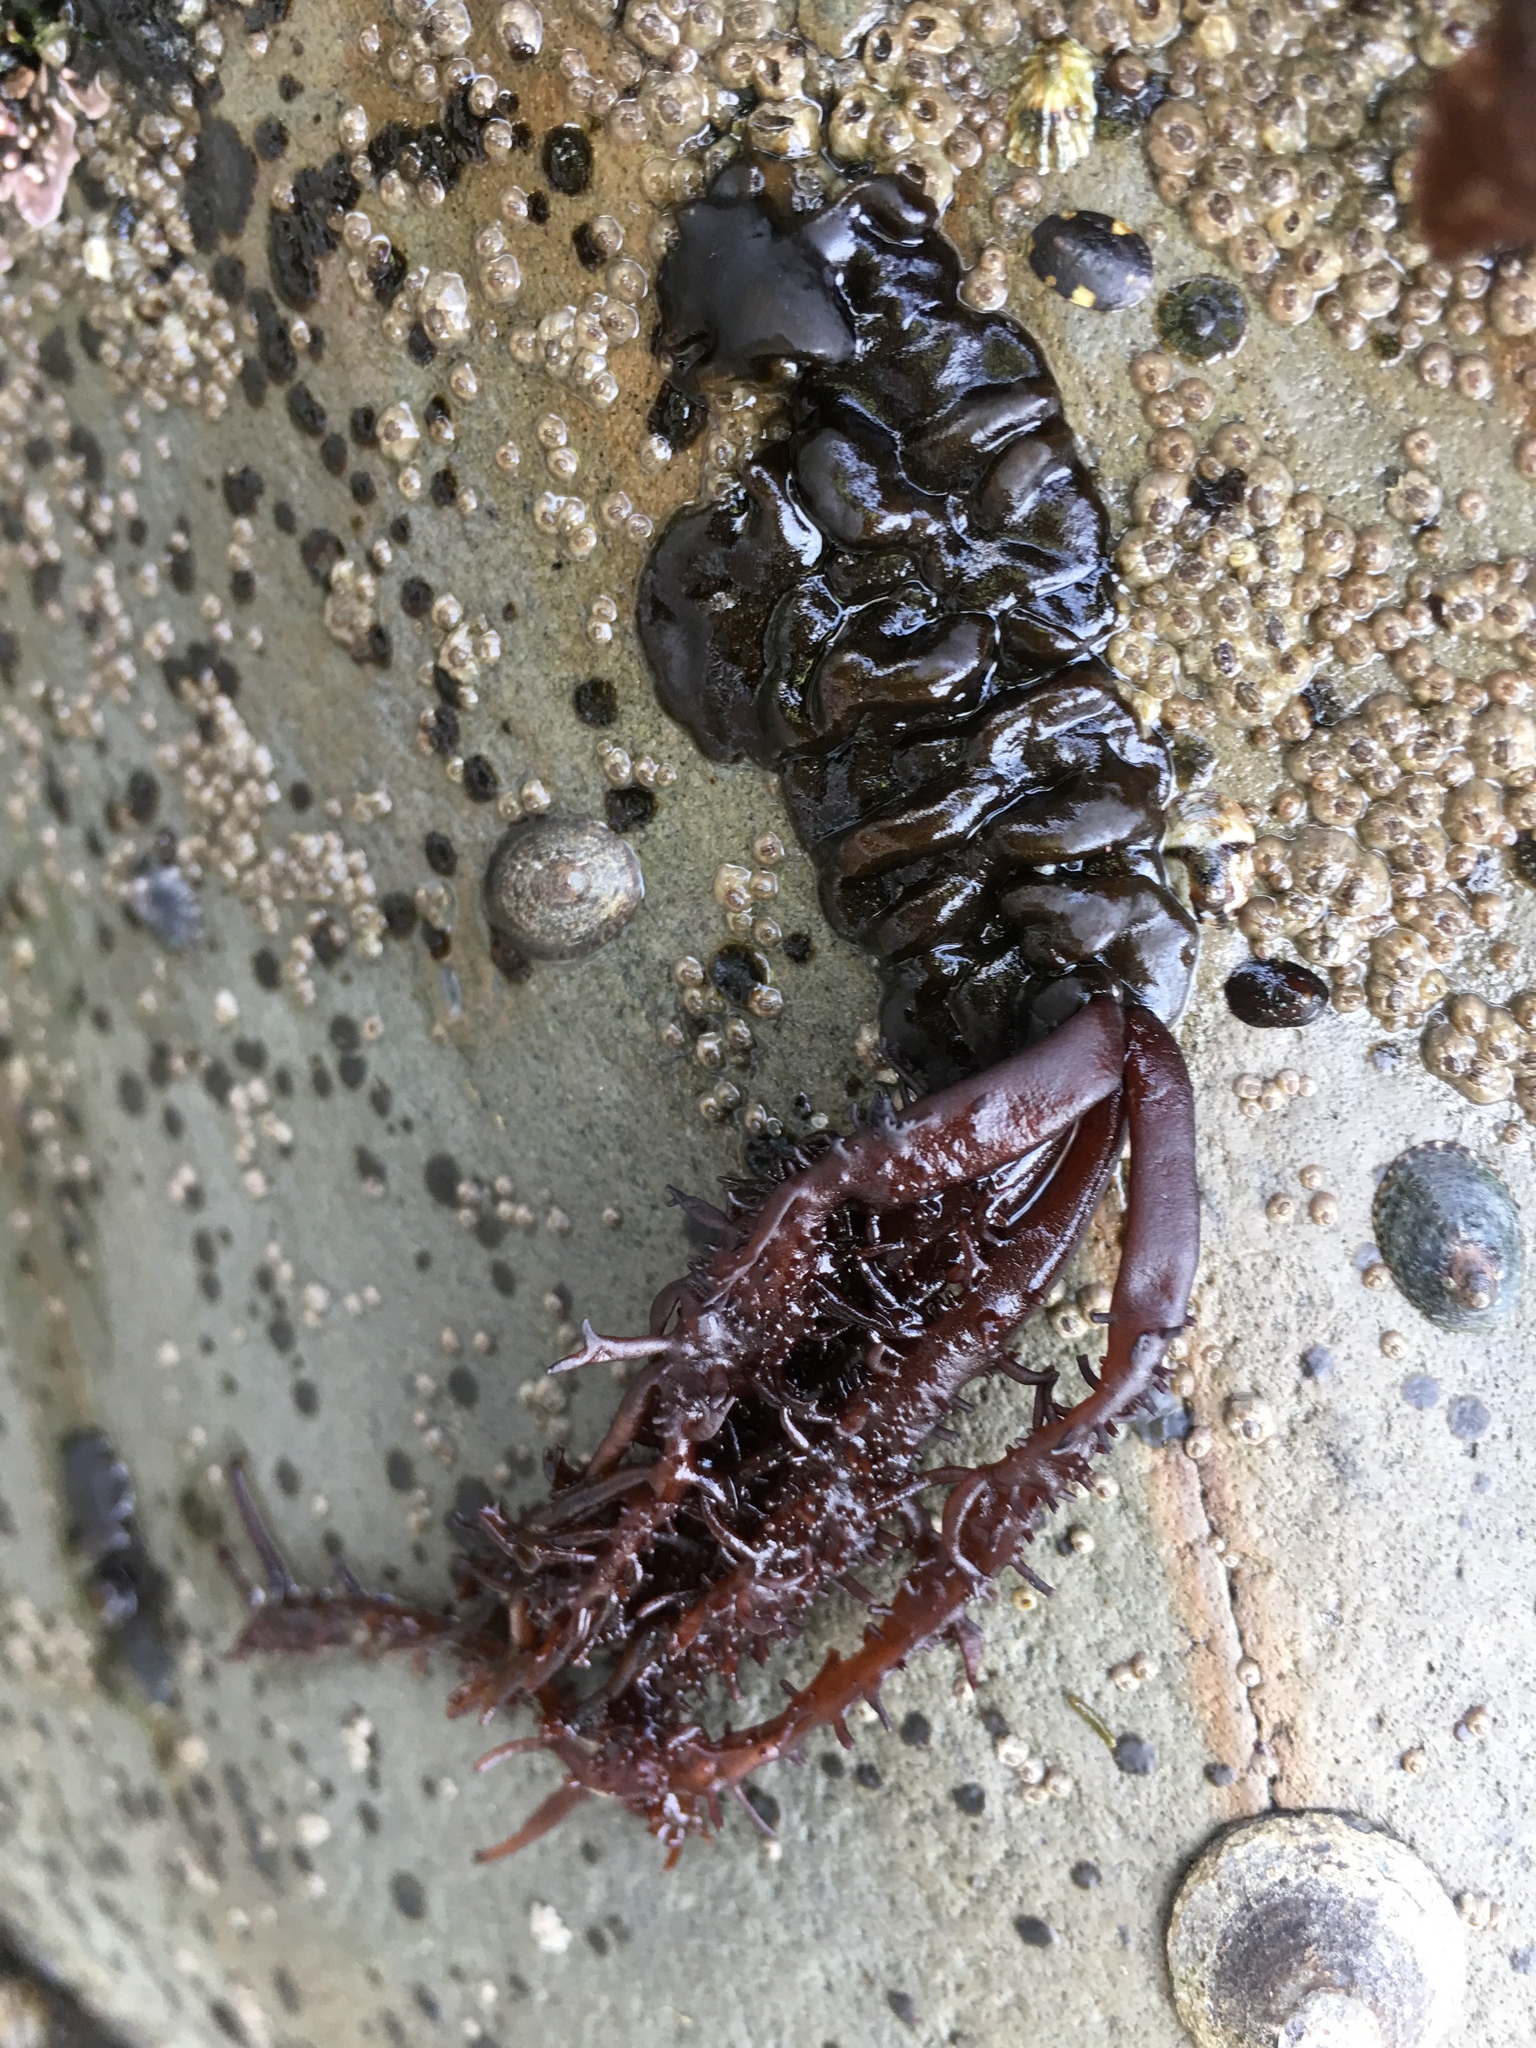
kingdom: Plantae
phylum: Rhodophyta
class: Florideophyceae
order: Nemaliales
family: Liagoraceae
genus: Cumagloia
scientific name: Cumagloia andersonii
